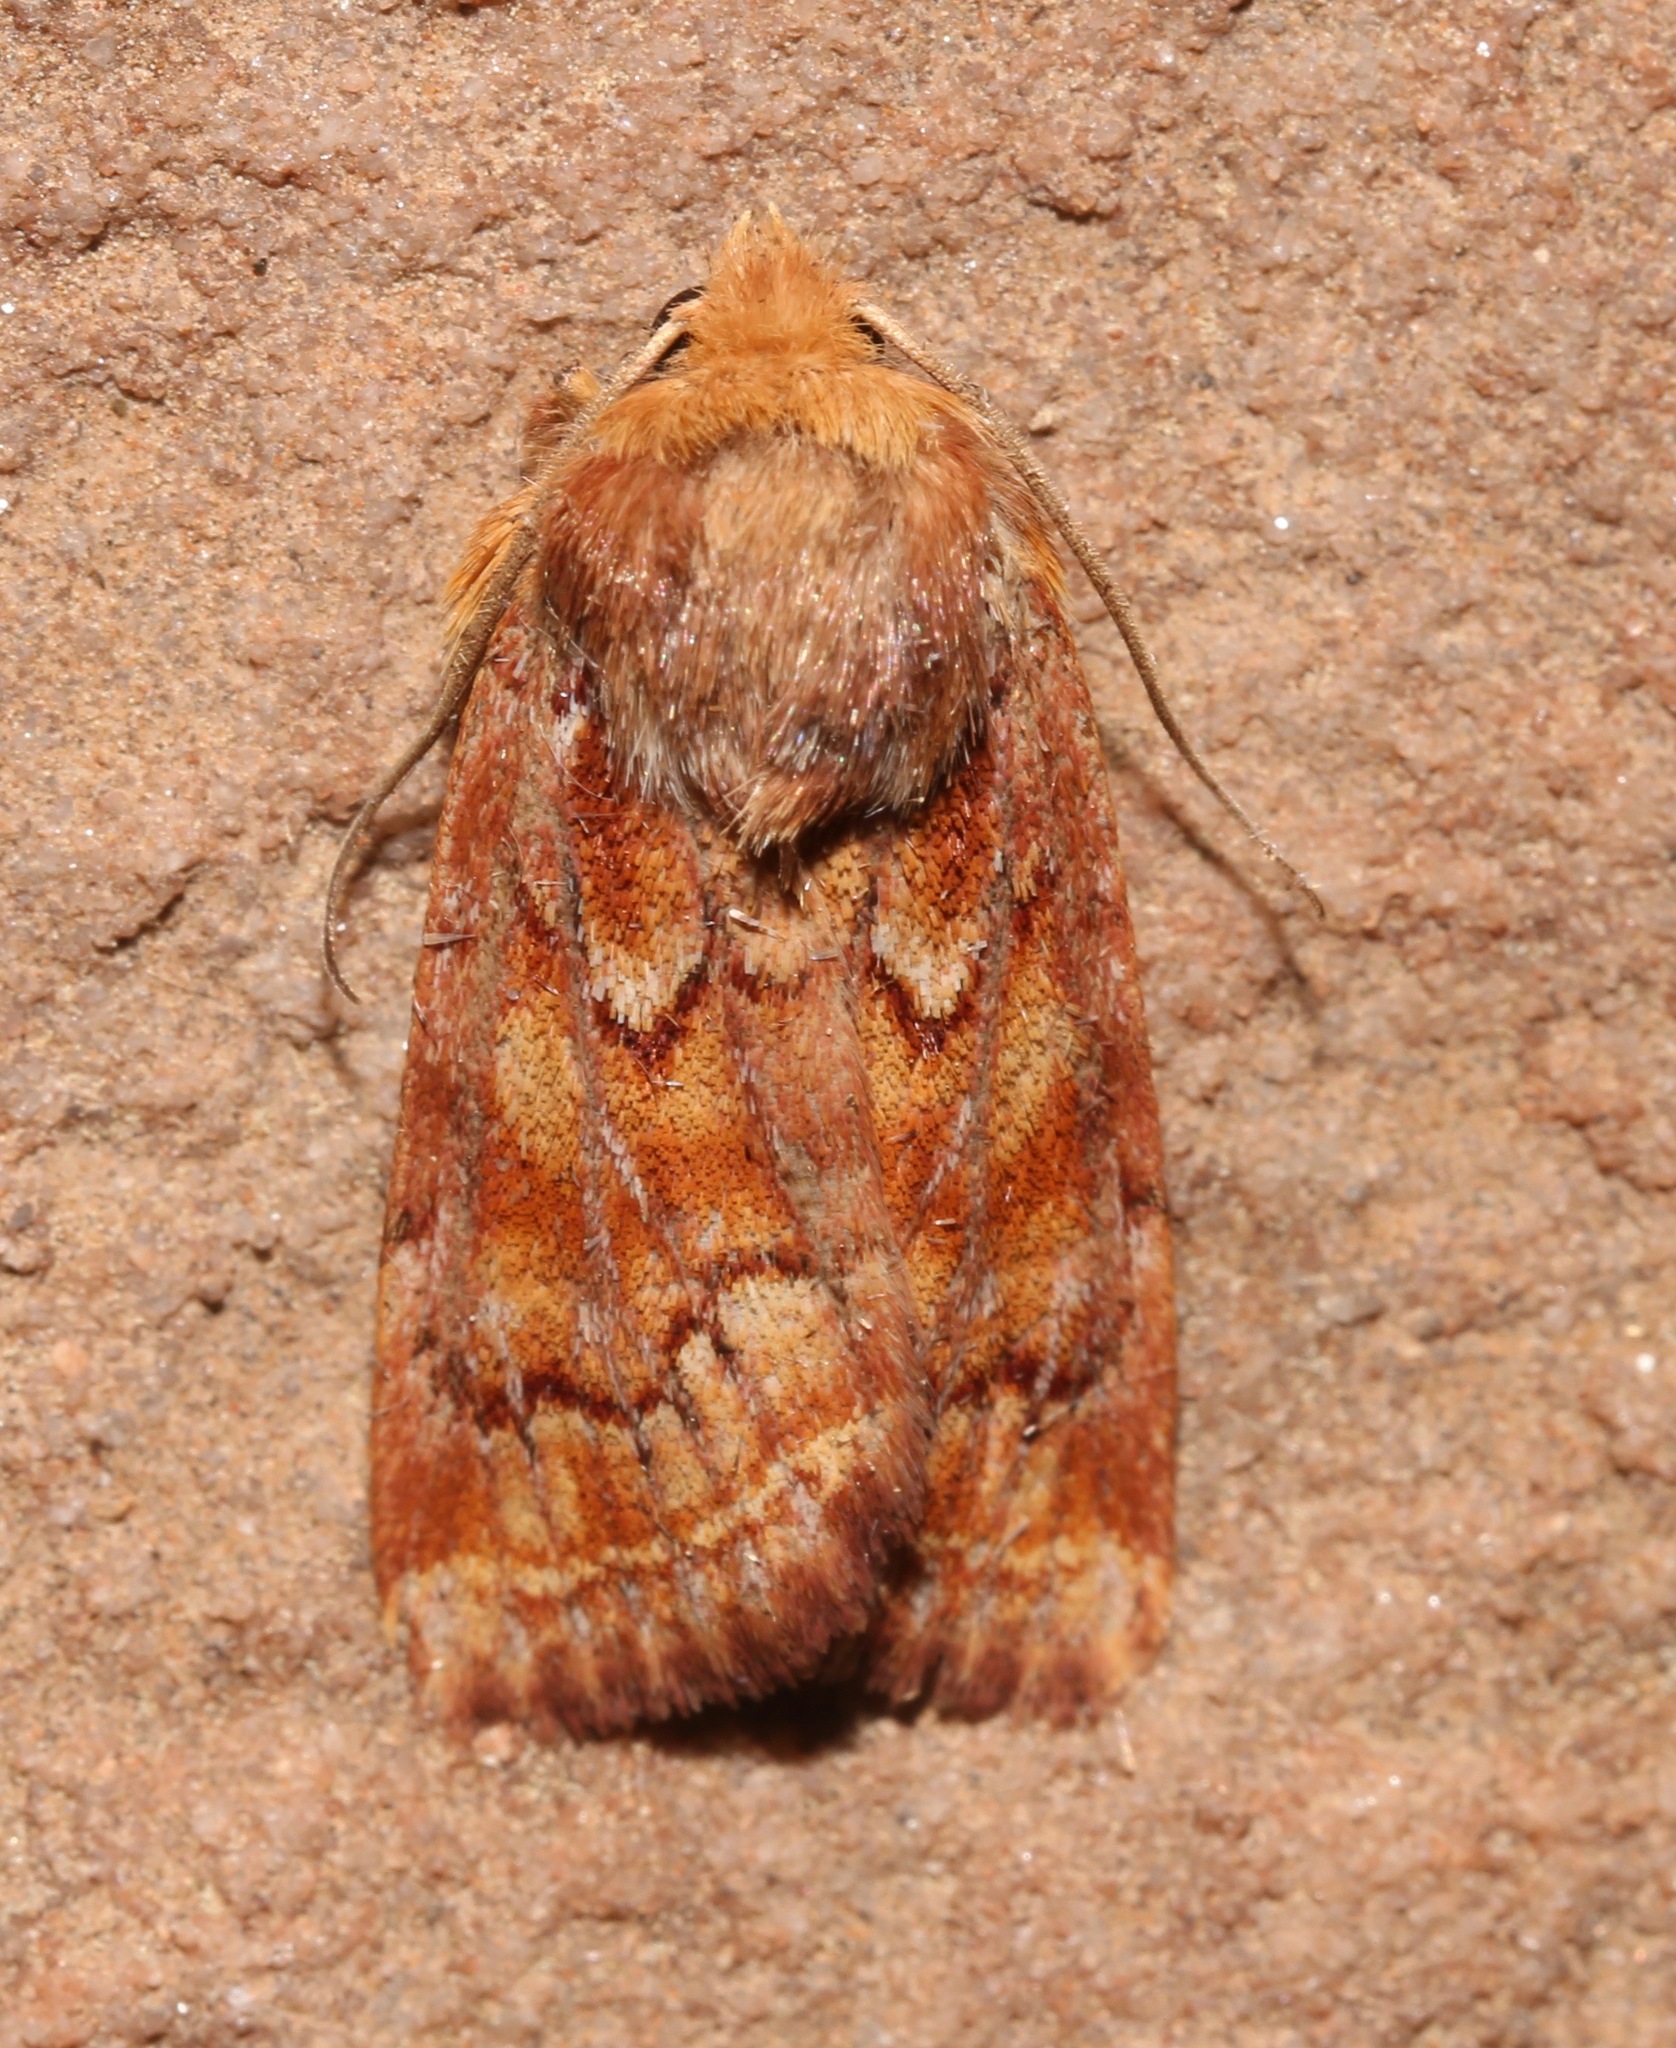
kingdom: Animalia
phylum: Arthropoda
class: Insecta
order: Lepidoptera
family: Noctuidae
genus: Homorthodes
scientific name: Homorthodes reliqua
